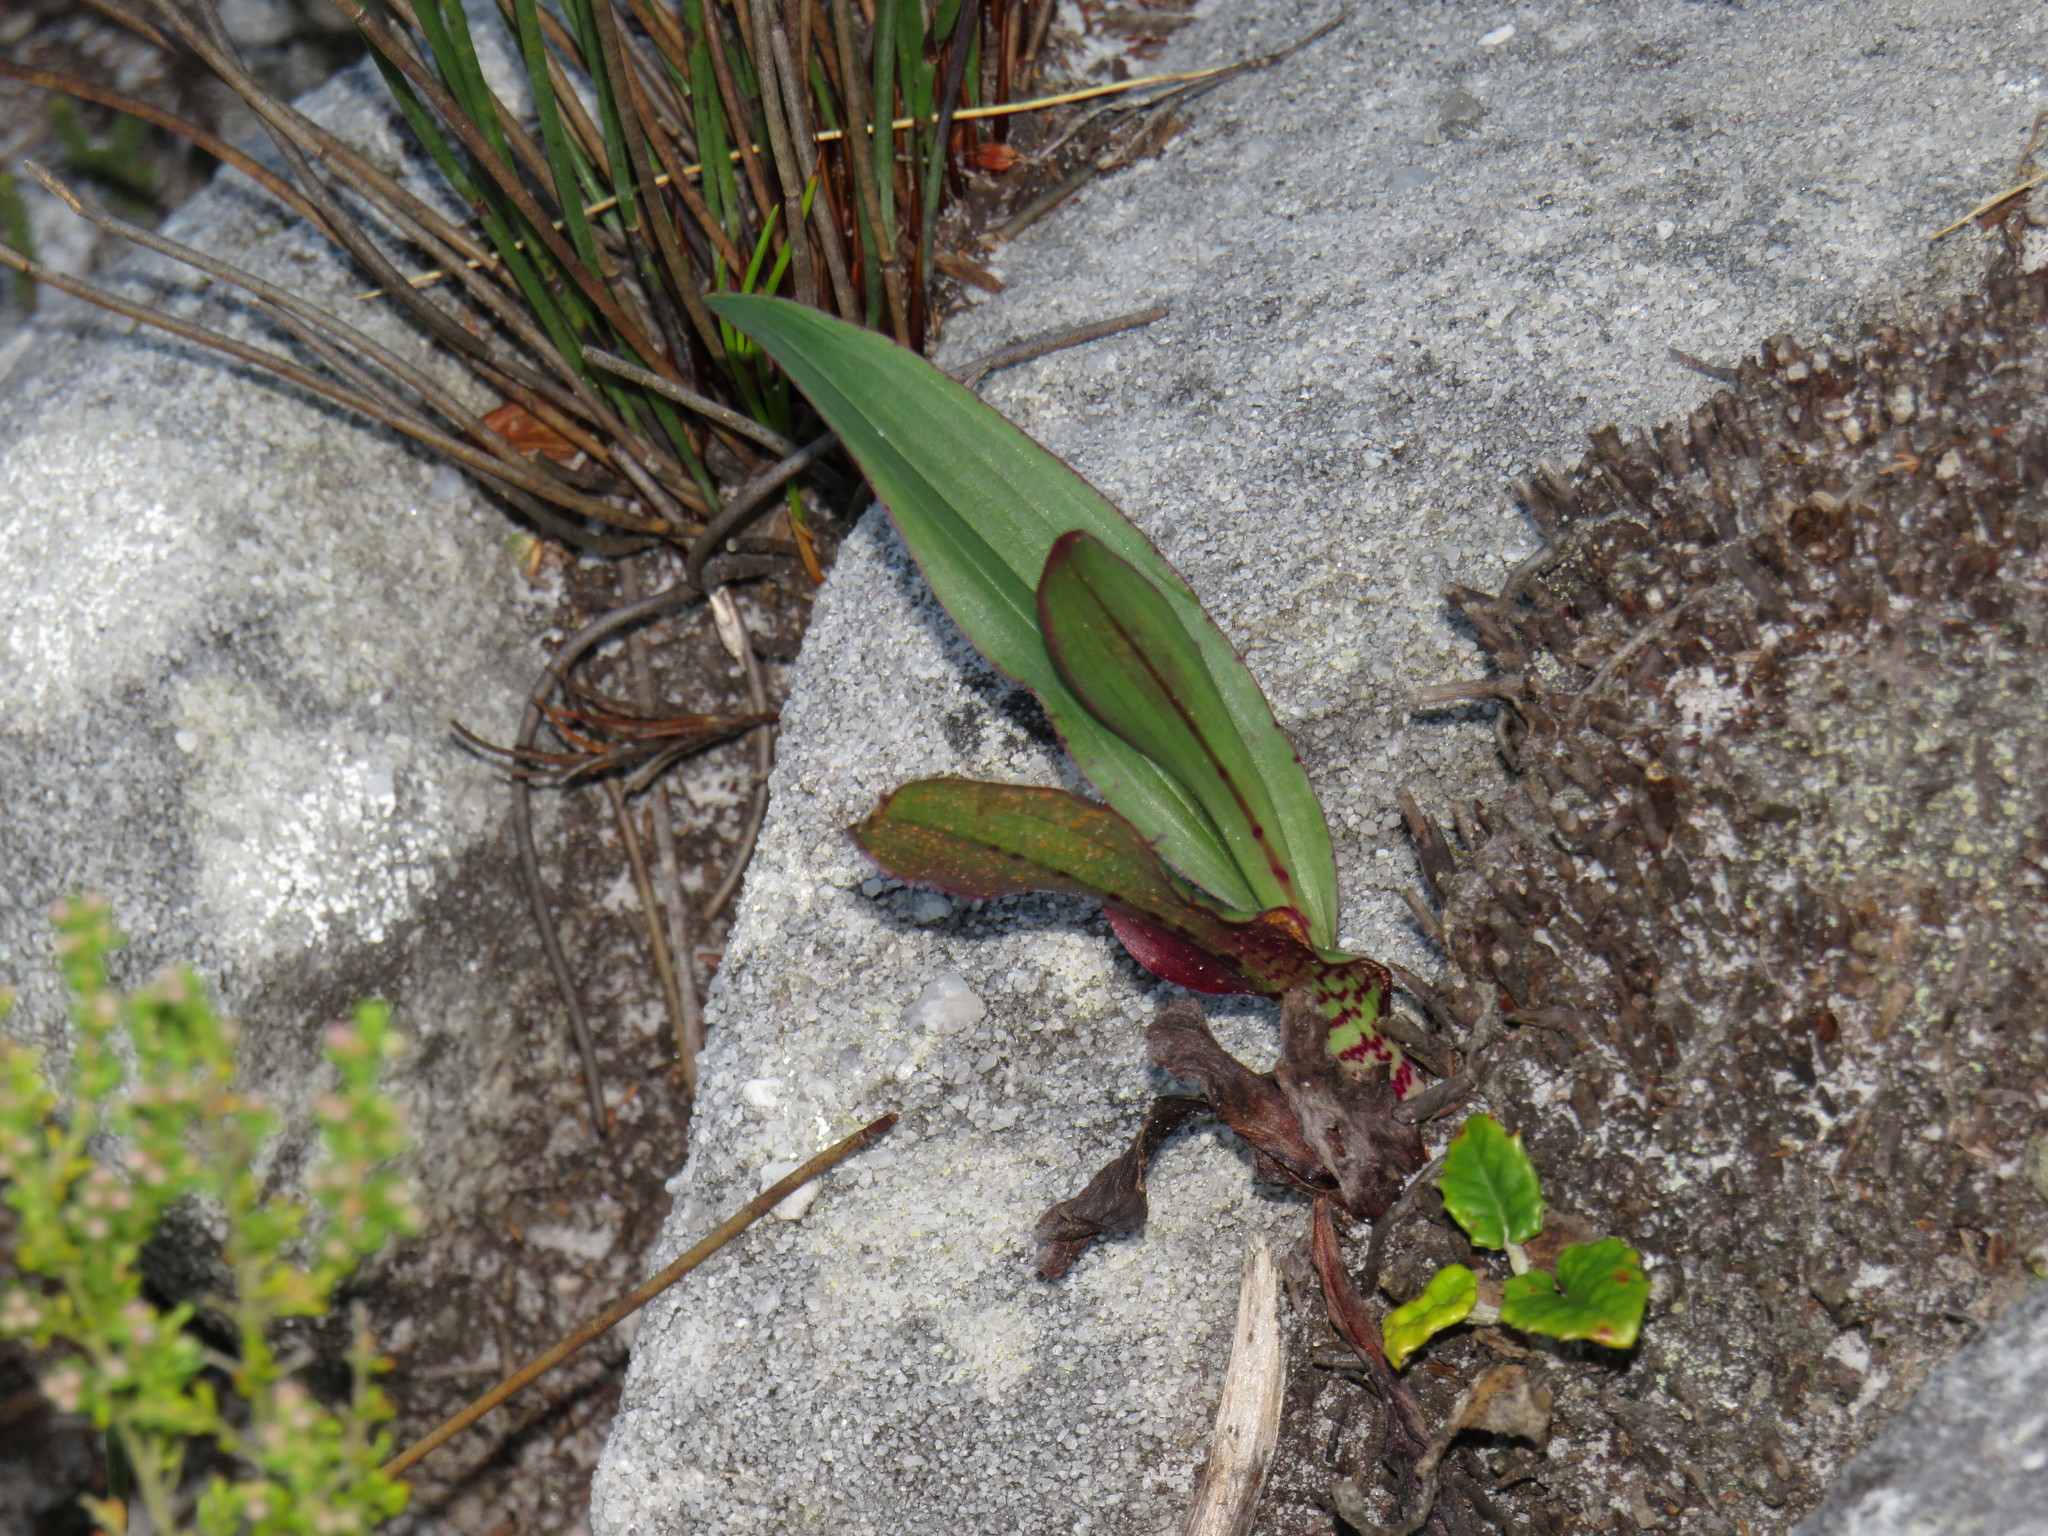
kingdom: Plantae
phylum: Tracheophyta
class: Liliopsida
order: Asparagales
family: Orchidaceae
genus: Disa
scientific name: Disa cornuta
